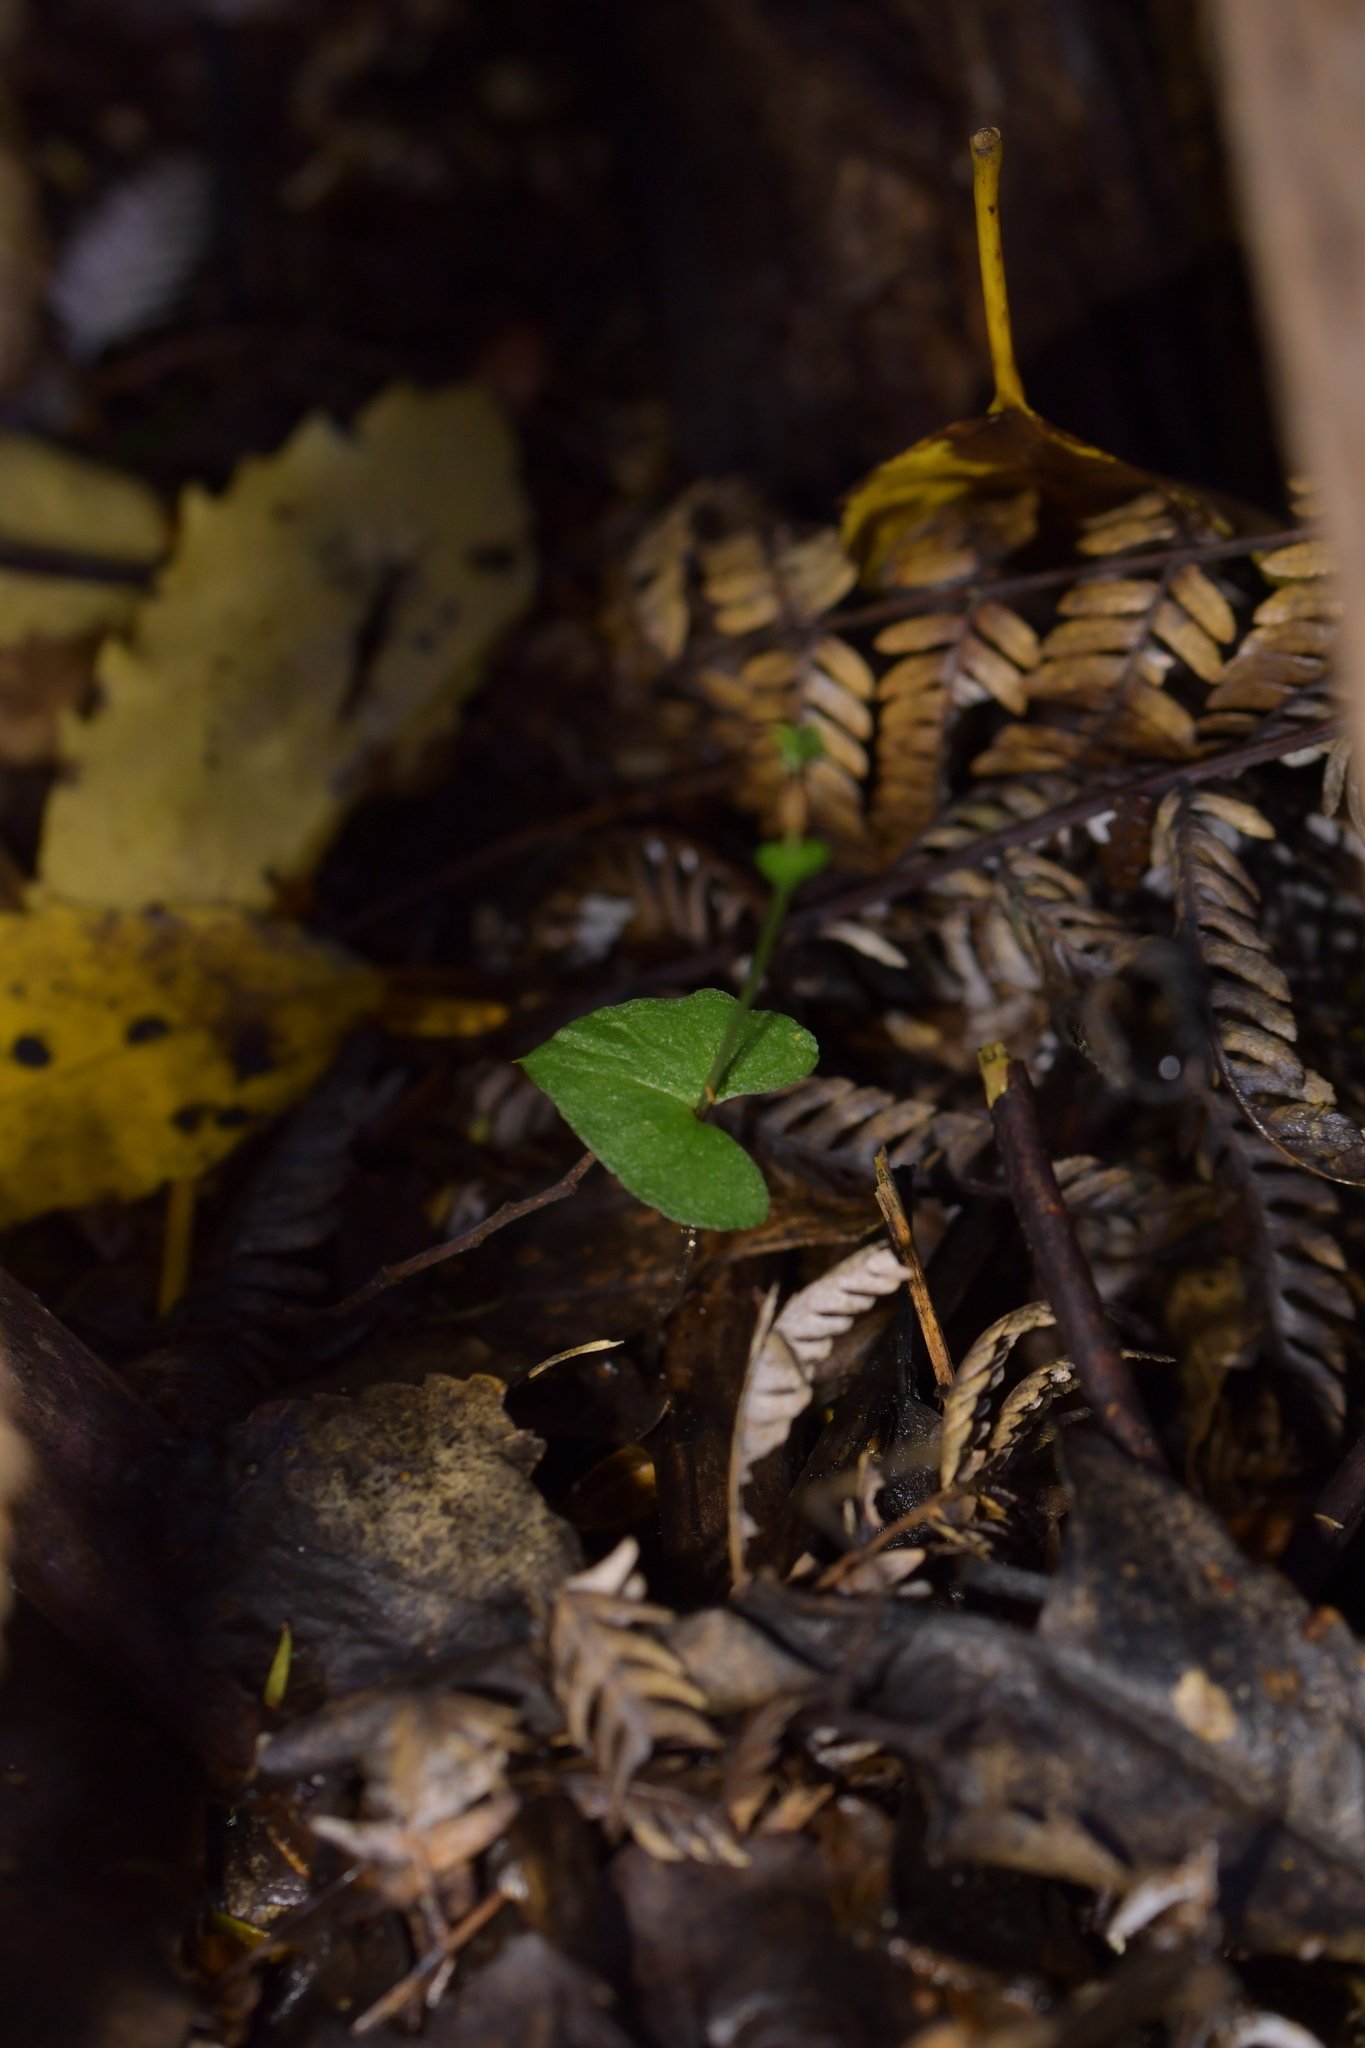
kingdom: Plantae
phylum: Tracheophyta
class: Liliopsida
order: Asparagales
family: Orchidaceae
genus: Acianthus
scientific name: Acianthus sinclairii
